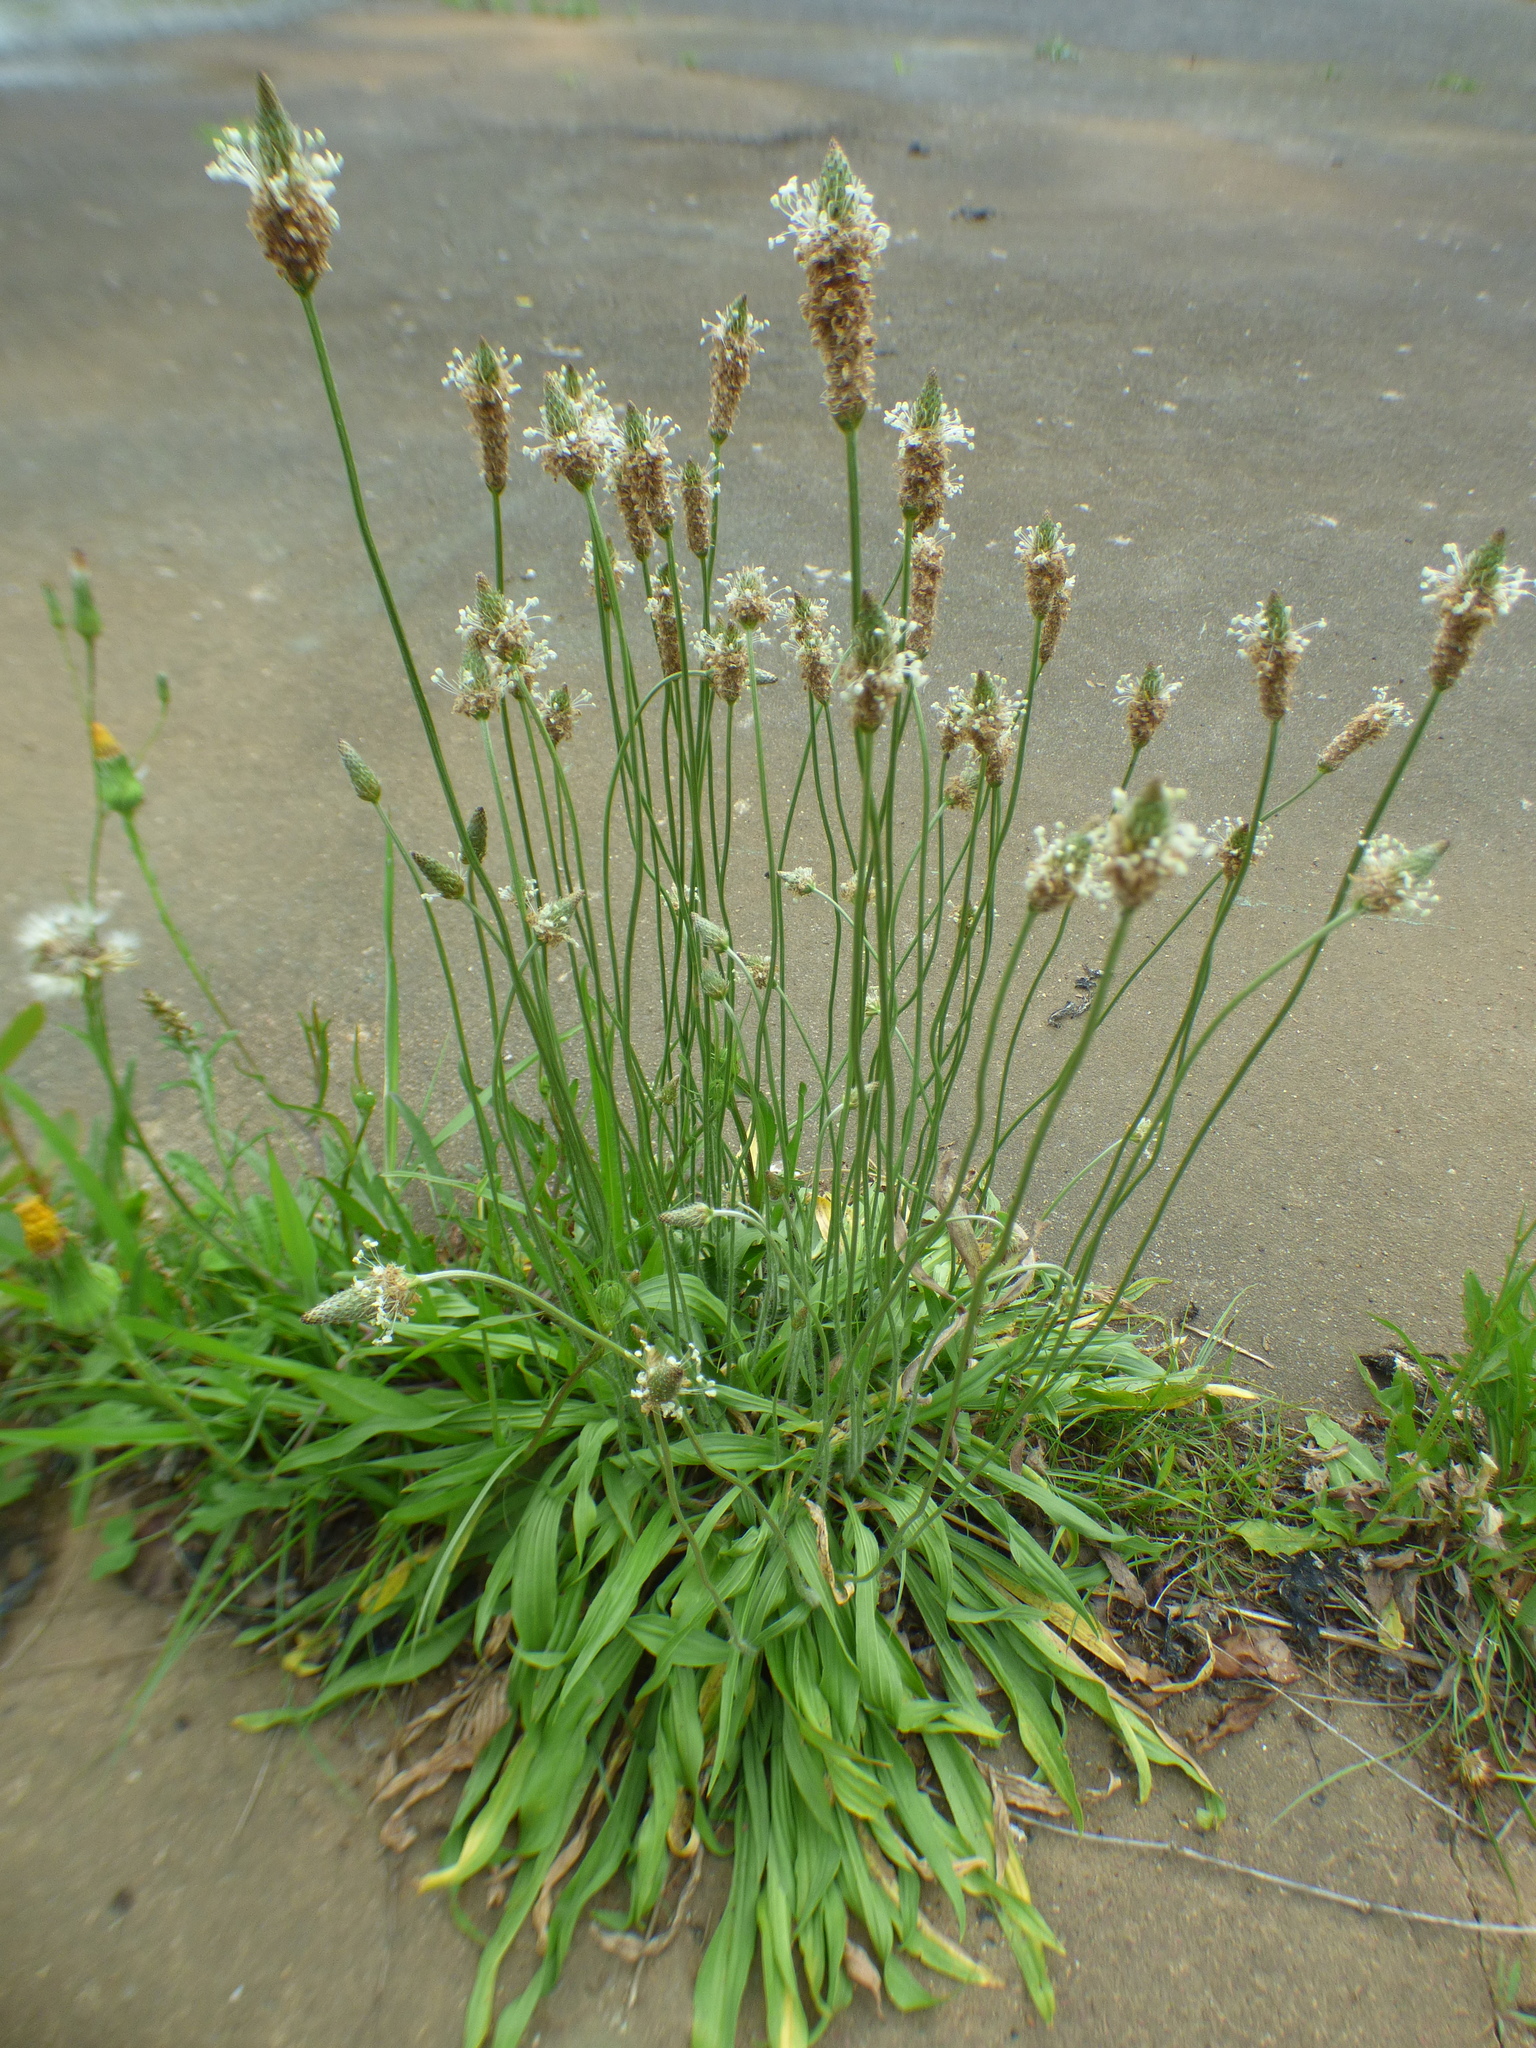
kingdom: Plantae
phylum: Tracheophyta
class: Magnoliopsida
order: Lamiales
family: Plantaginaceae
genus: Plantago
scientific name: Plantago lanceolata
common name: Ribwort plantain
